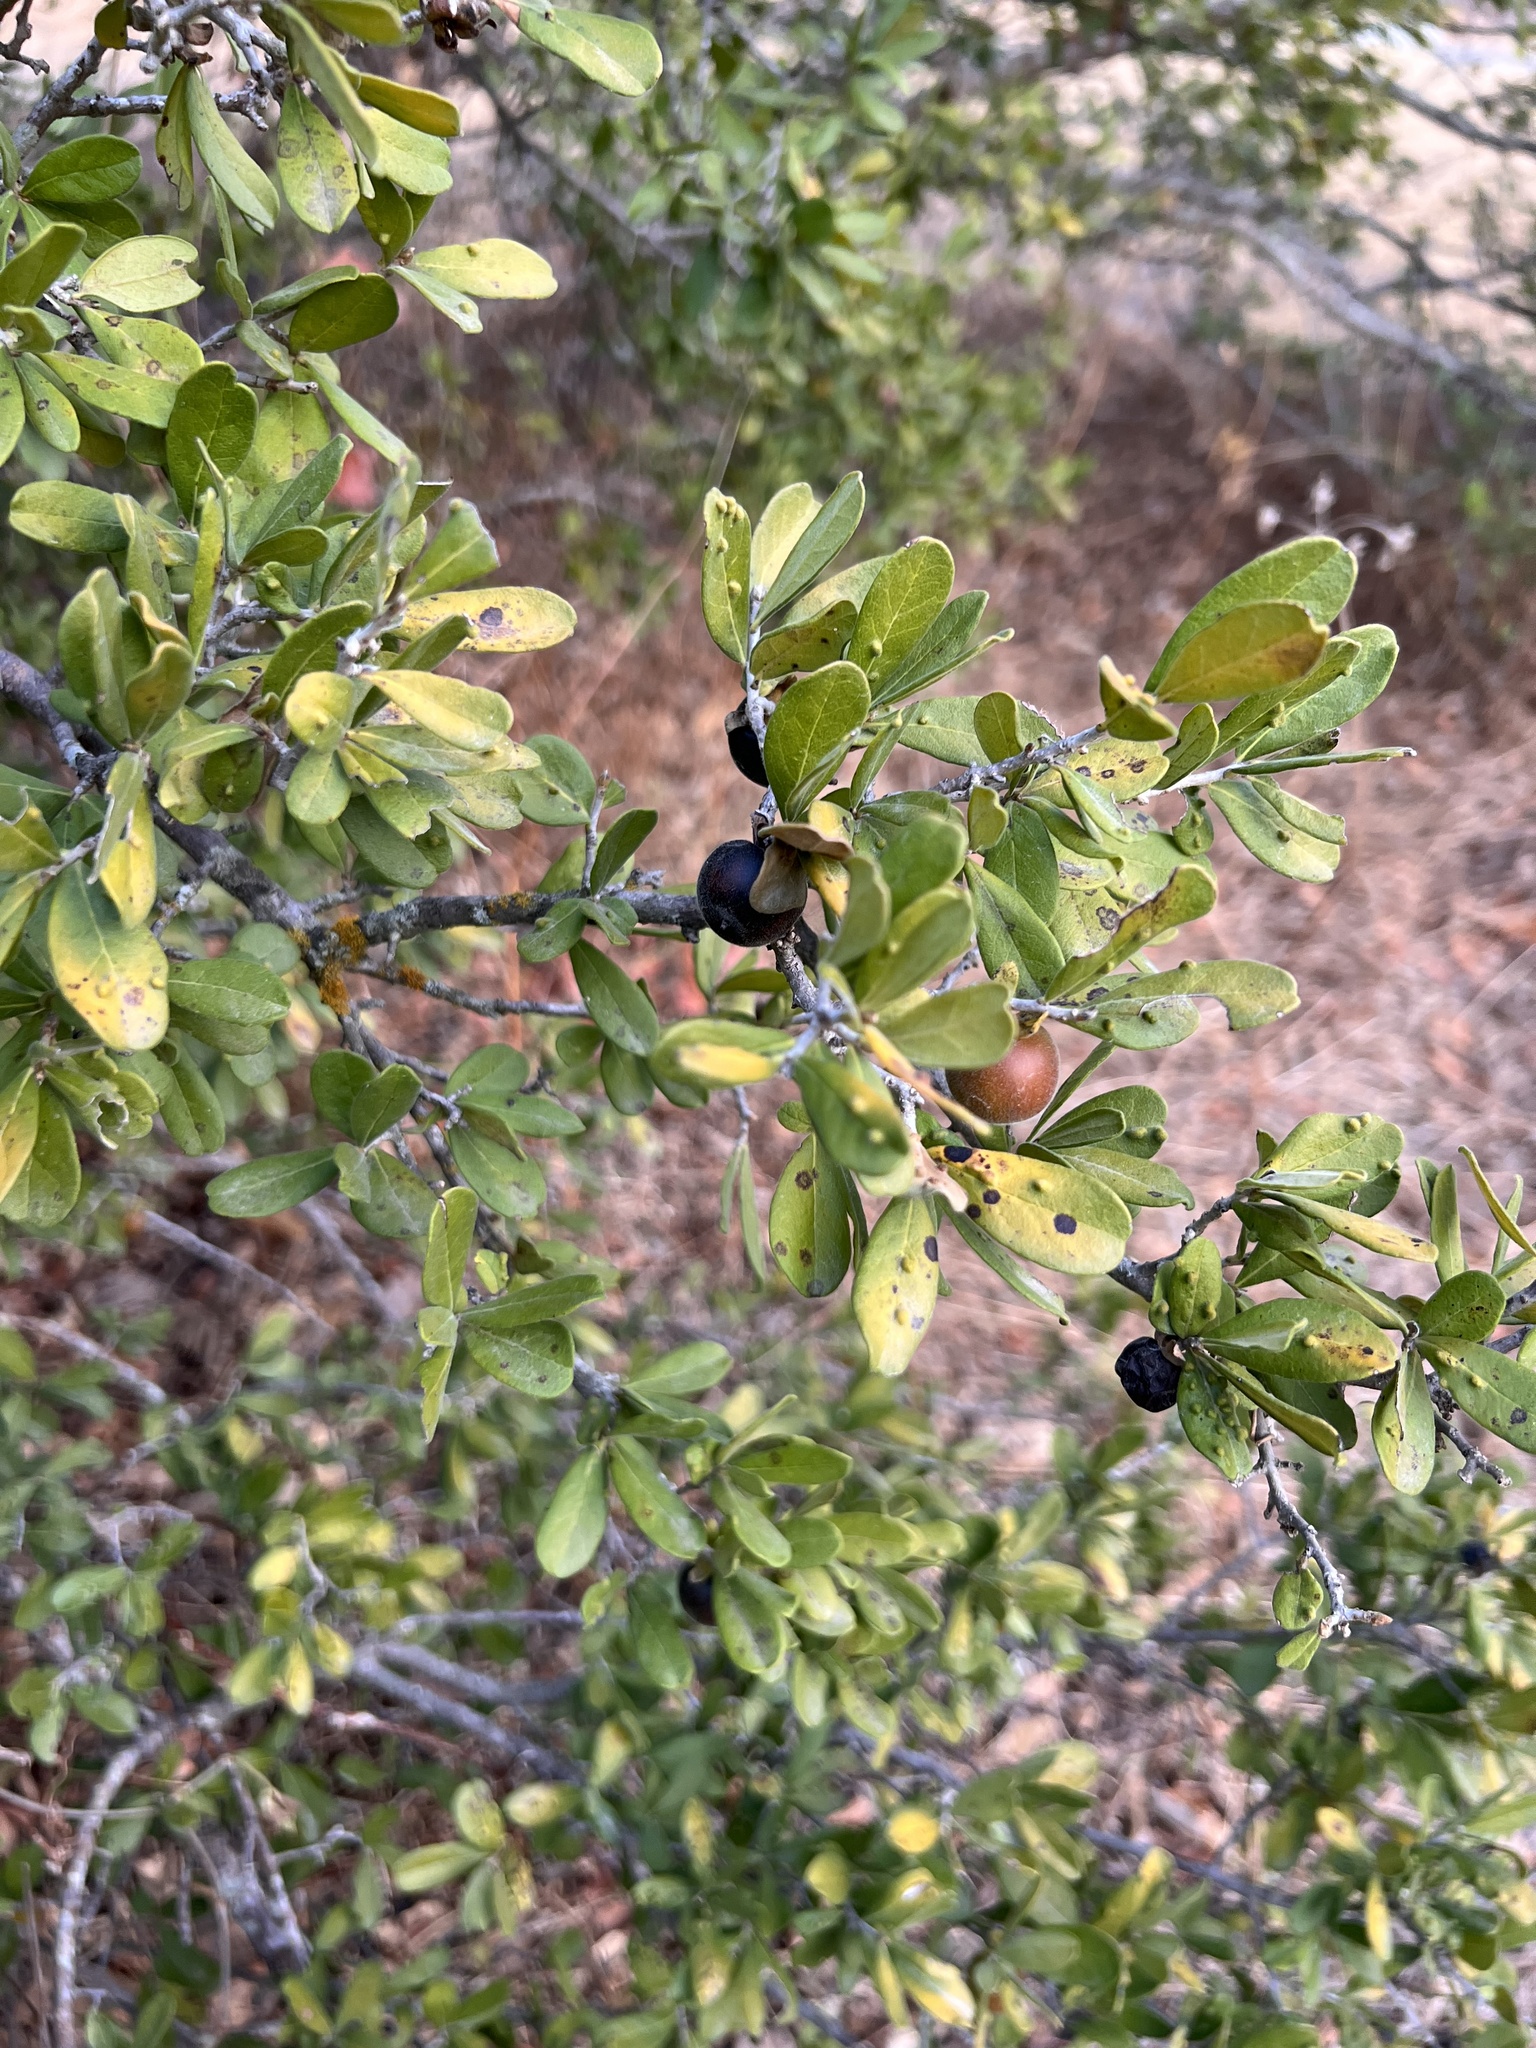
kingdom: Plantae
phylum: Tracheophyta
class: Magnoliopsida
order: Ericales
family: Ebenaceae
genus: Diospyros
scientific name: Diospyros texana
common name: Texas persimmon
